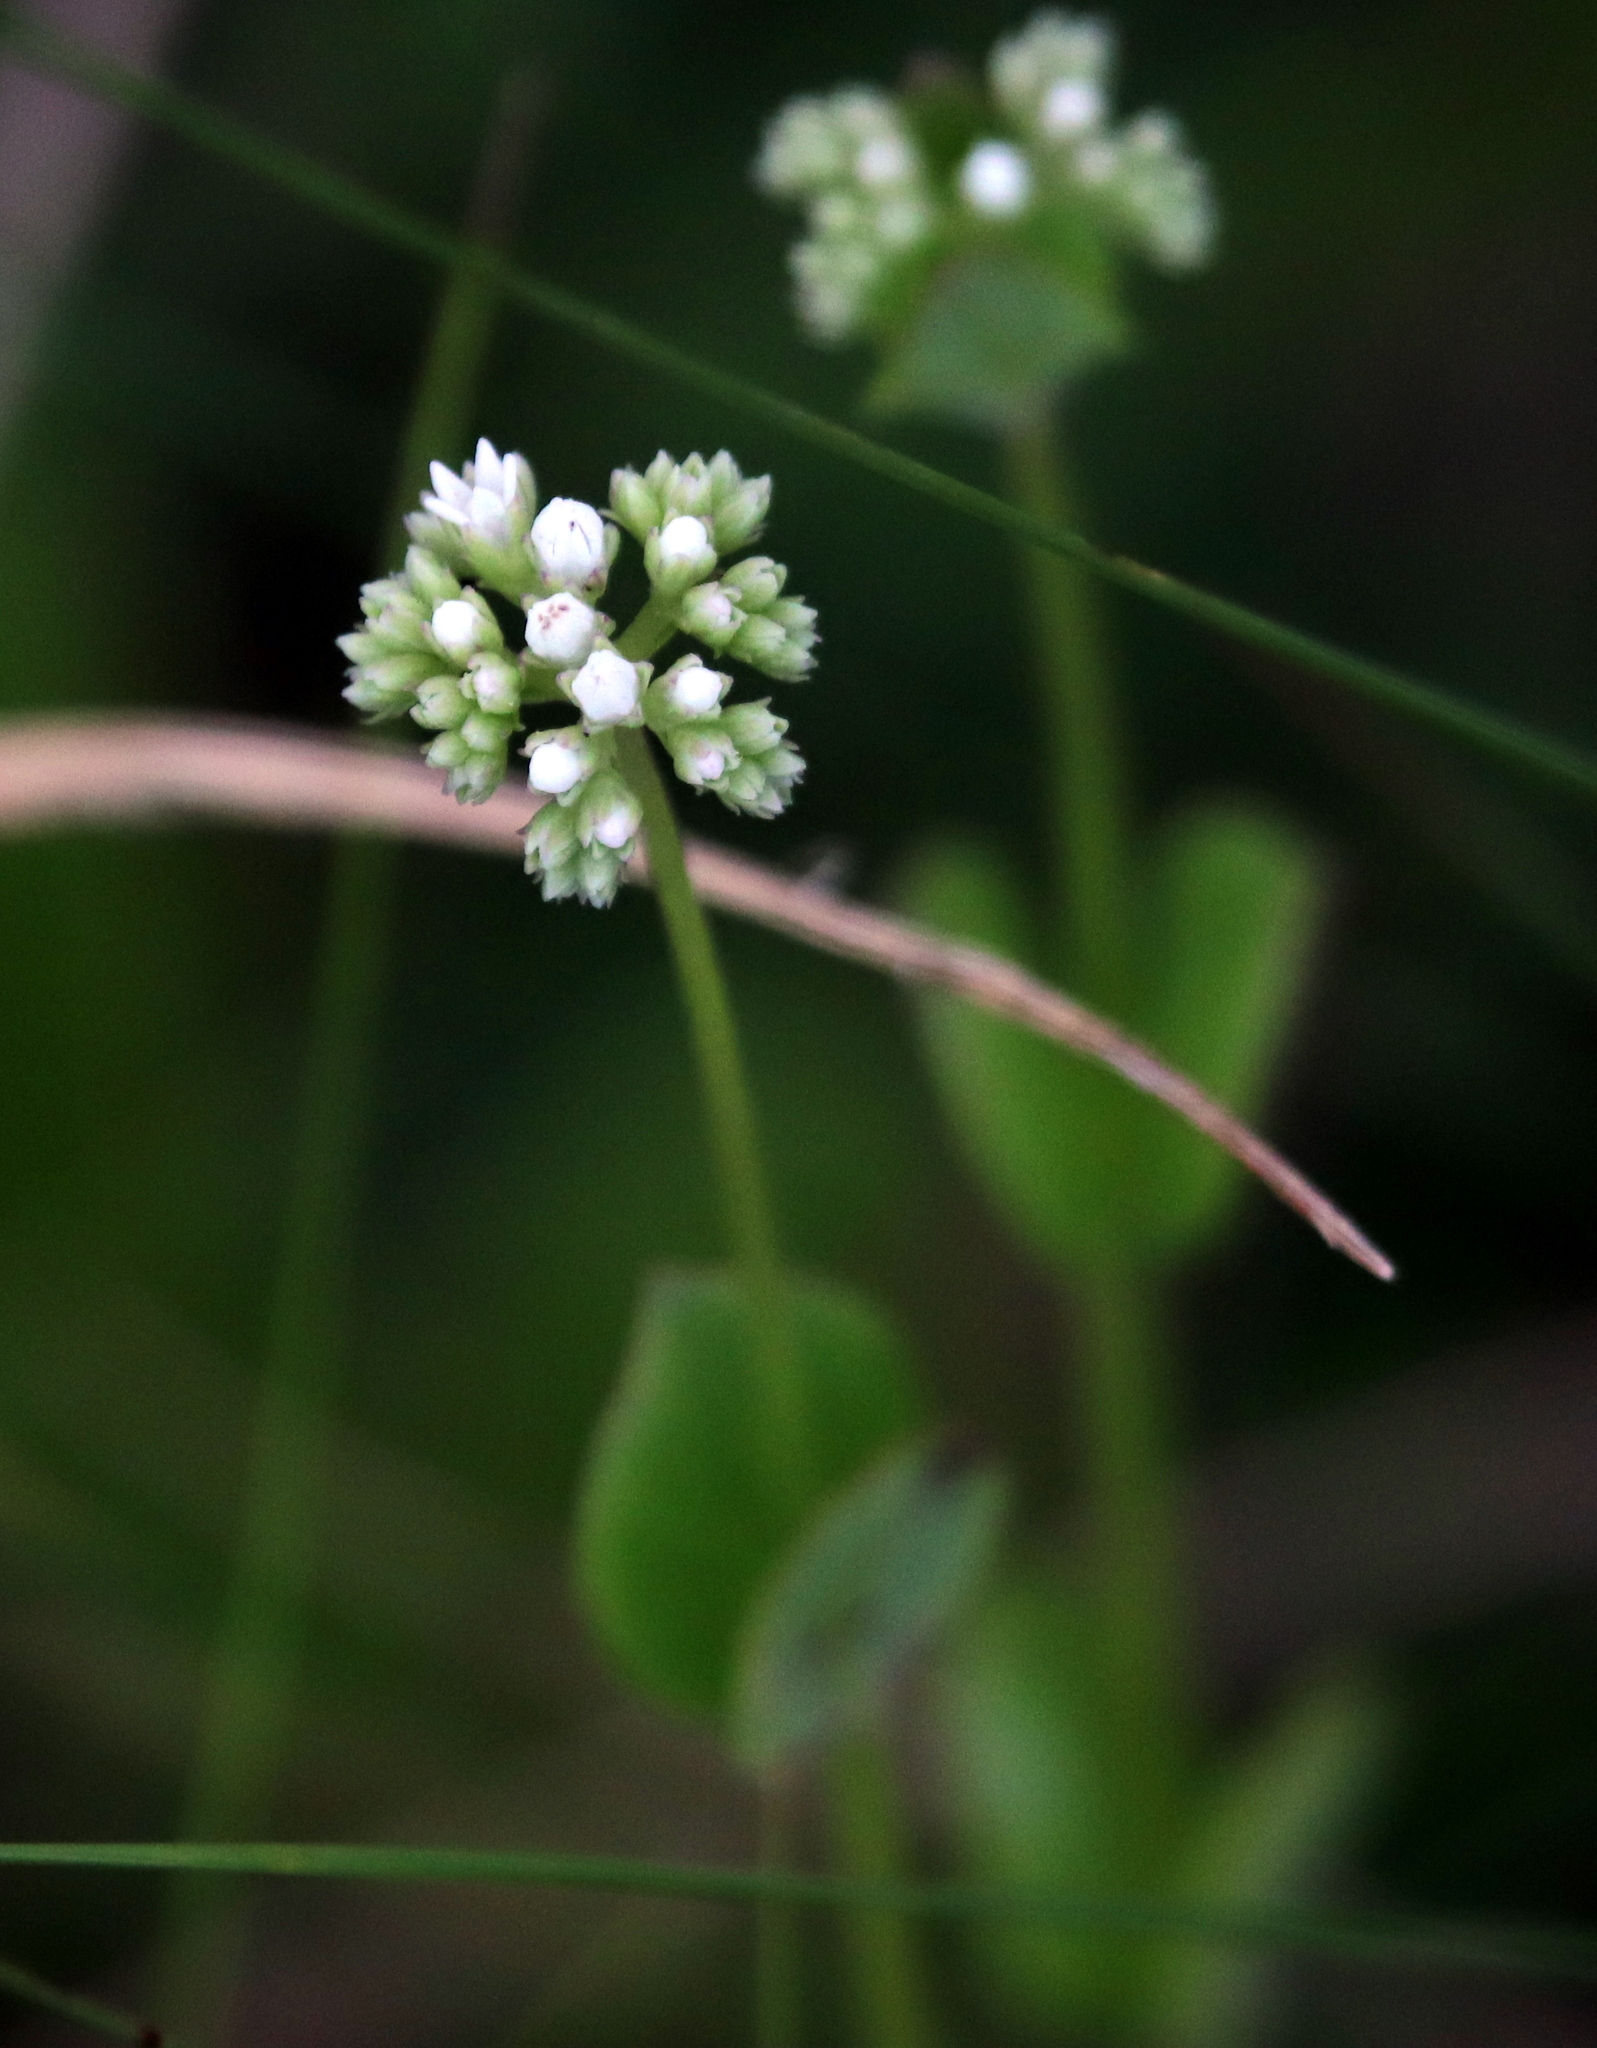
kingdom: Plantae
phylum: Tracheophyta
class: Magnoliopsida
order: Gentianales
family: Loganiaceae
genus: Mitreola
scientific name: Mitreola sessilifolia
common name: Swamp hornpod
